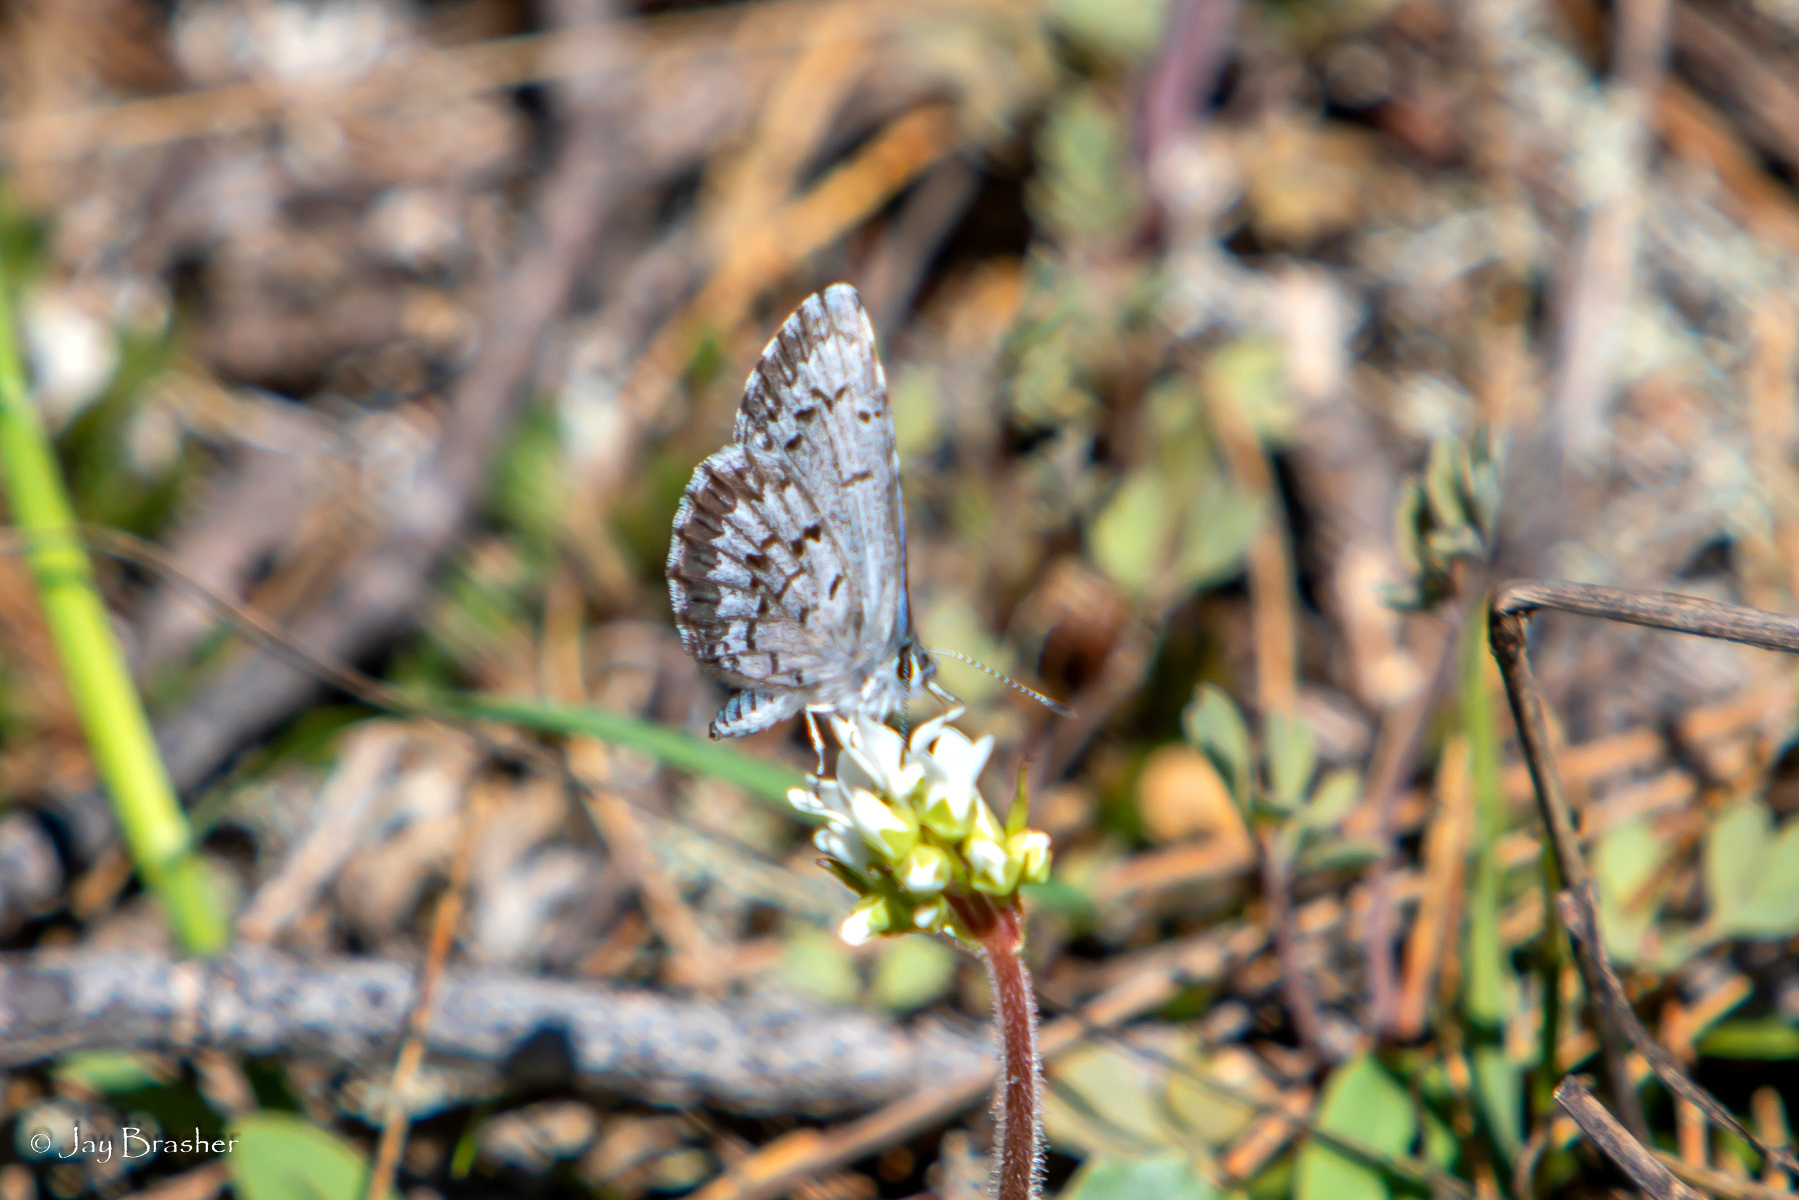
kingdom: Animalia
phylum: Arthropoda
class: Insecta
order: Lepidoptera
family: Lycaenidae
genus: Celastrina
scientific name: Celastrina lucia
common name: Lucia azure
